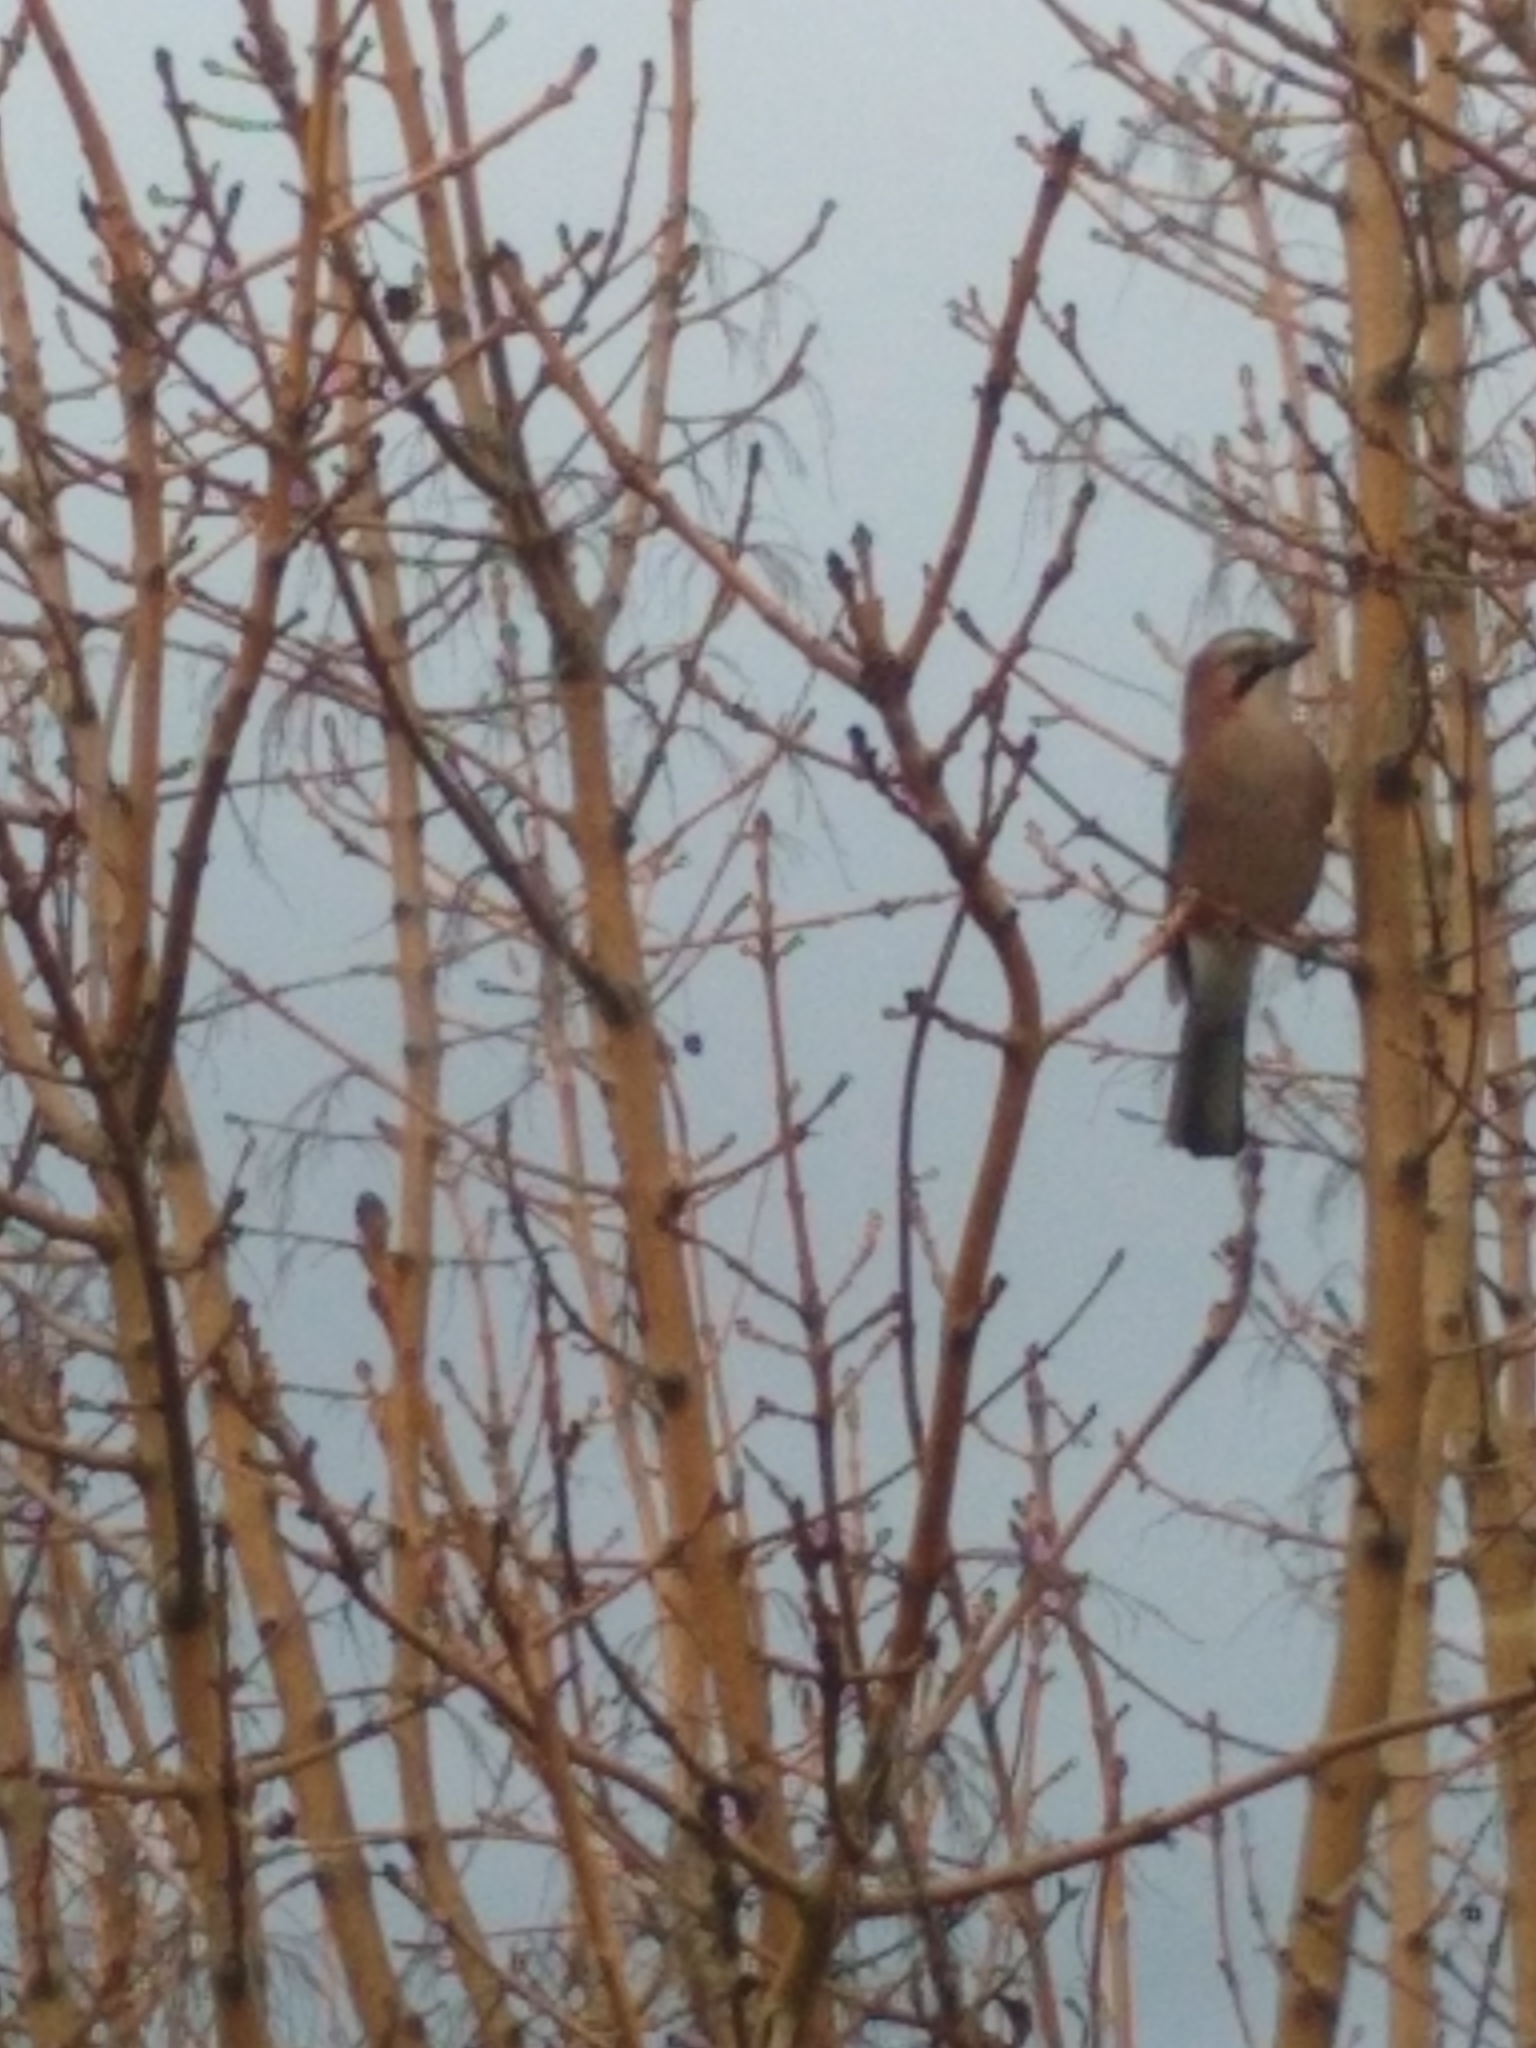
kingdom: Animalia
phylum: Chordata
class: Aves
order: Passeriformes
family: Corvidae
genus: Garrulus
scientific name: Garrulus glandarius
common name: Eurasian jay
